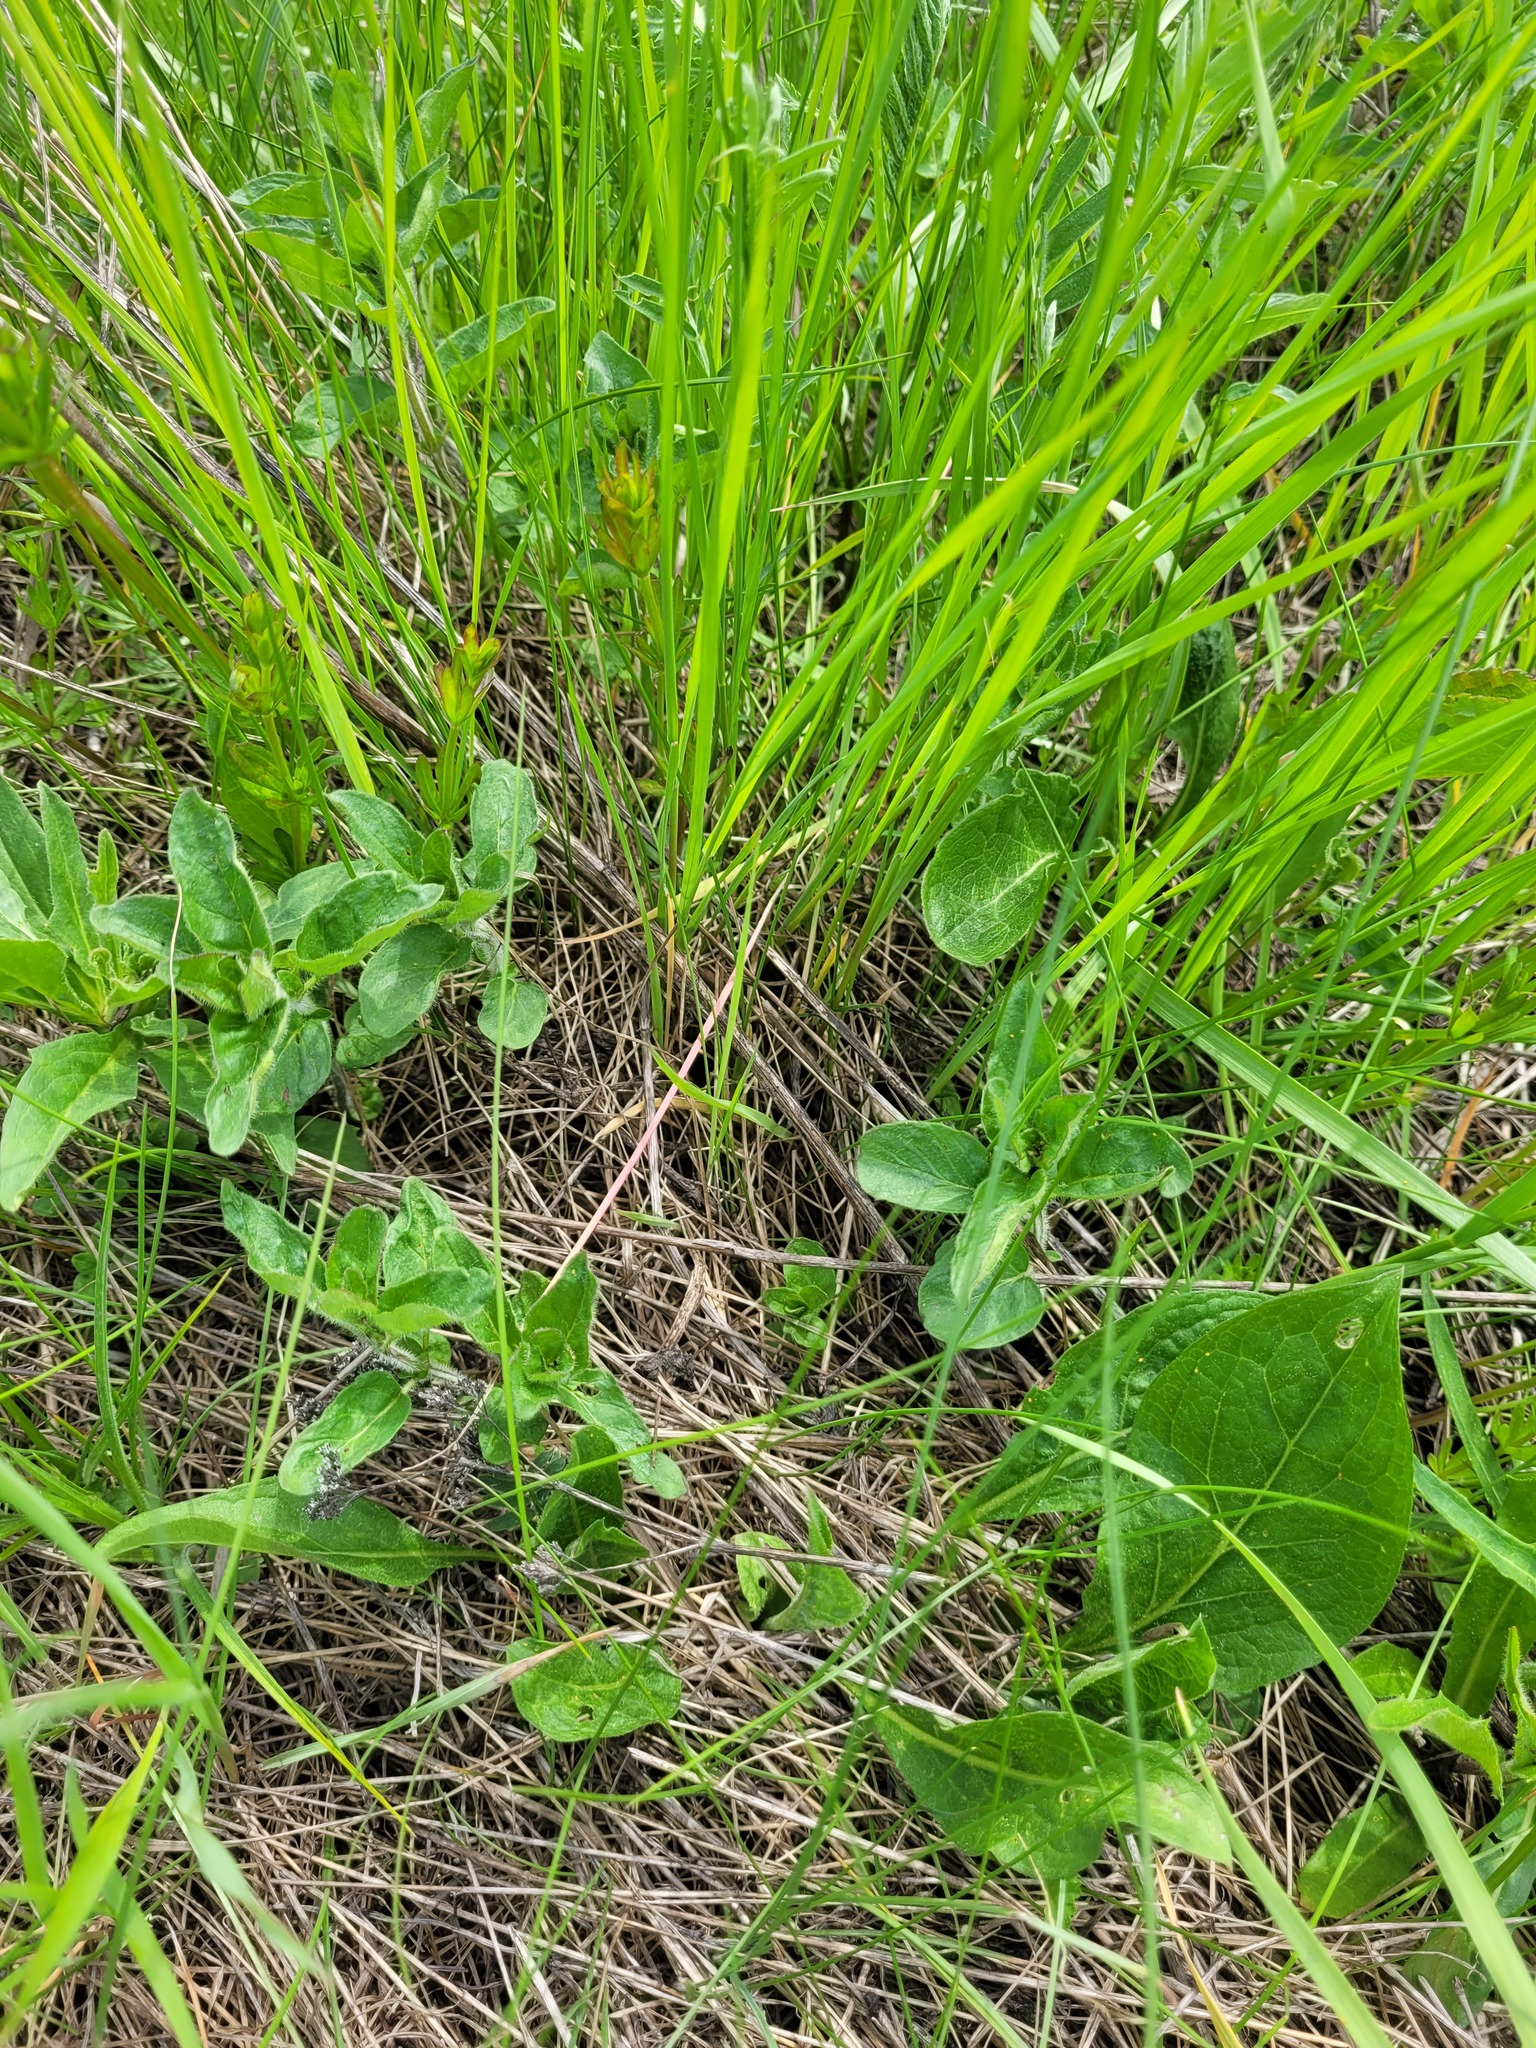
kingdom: Plantae
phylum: Tracheophyta
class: Magnoliopsida
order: Lamiales
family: Lamiaceae
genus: Origanum
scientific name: Origanum vulgare
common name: Wild marjoram
